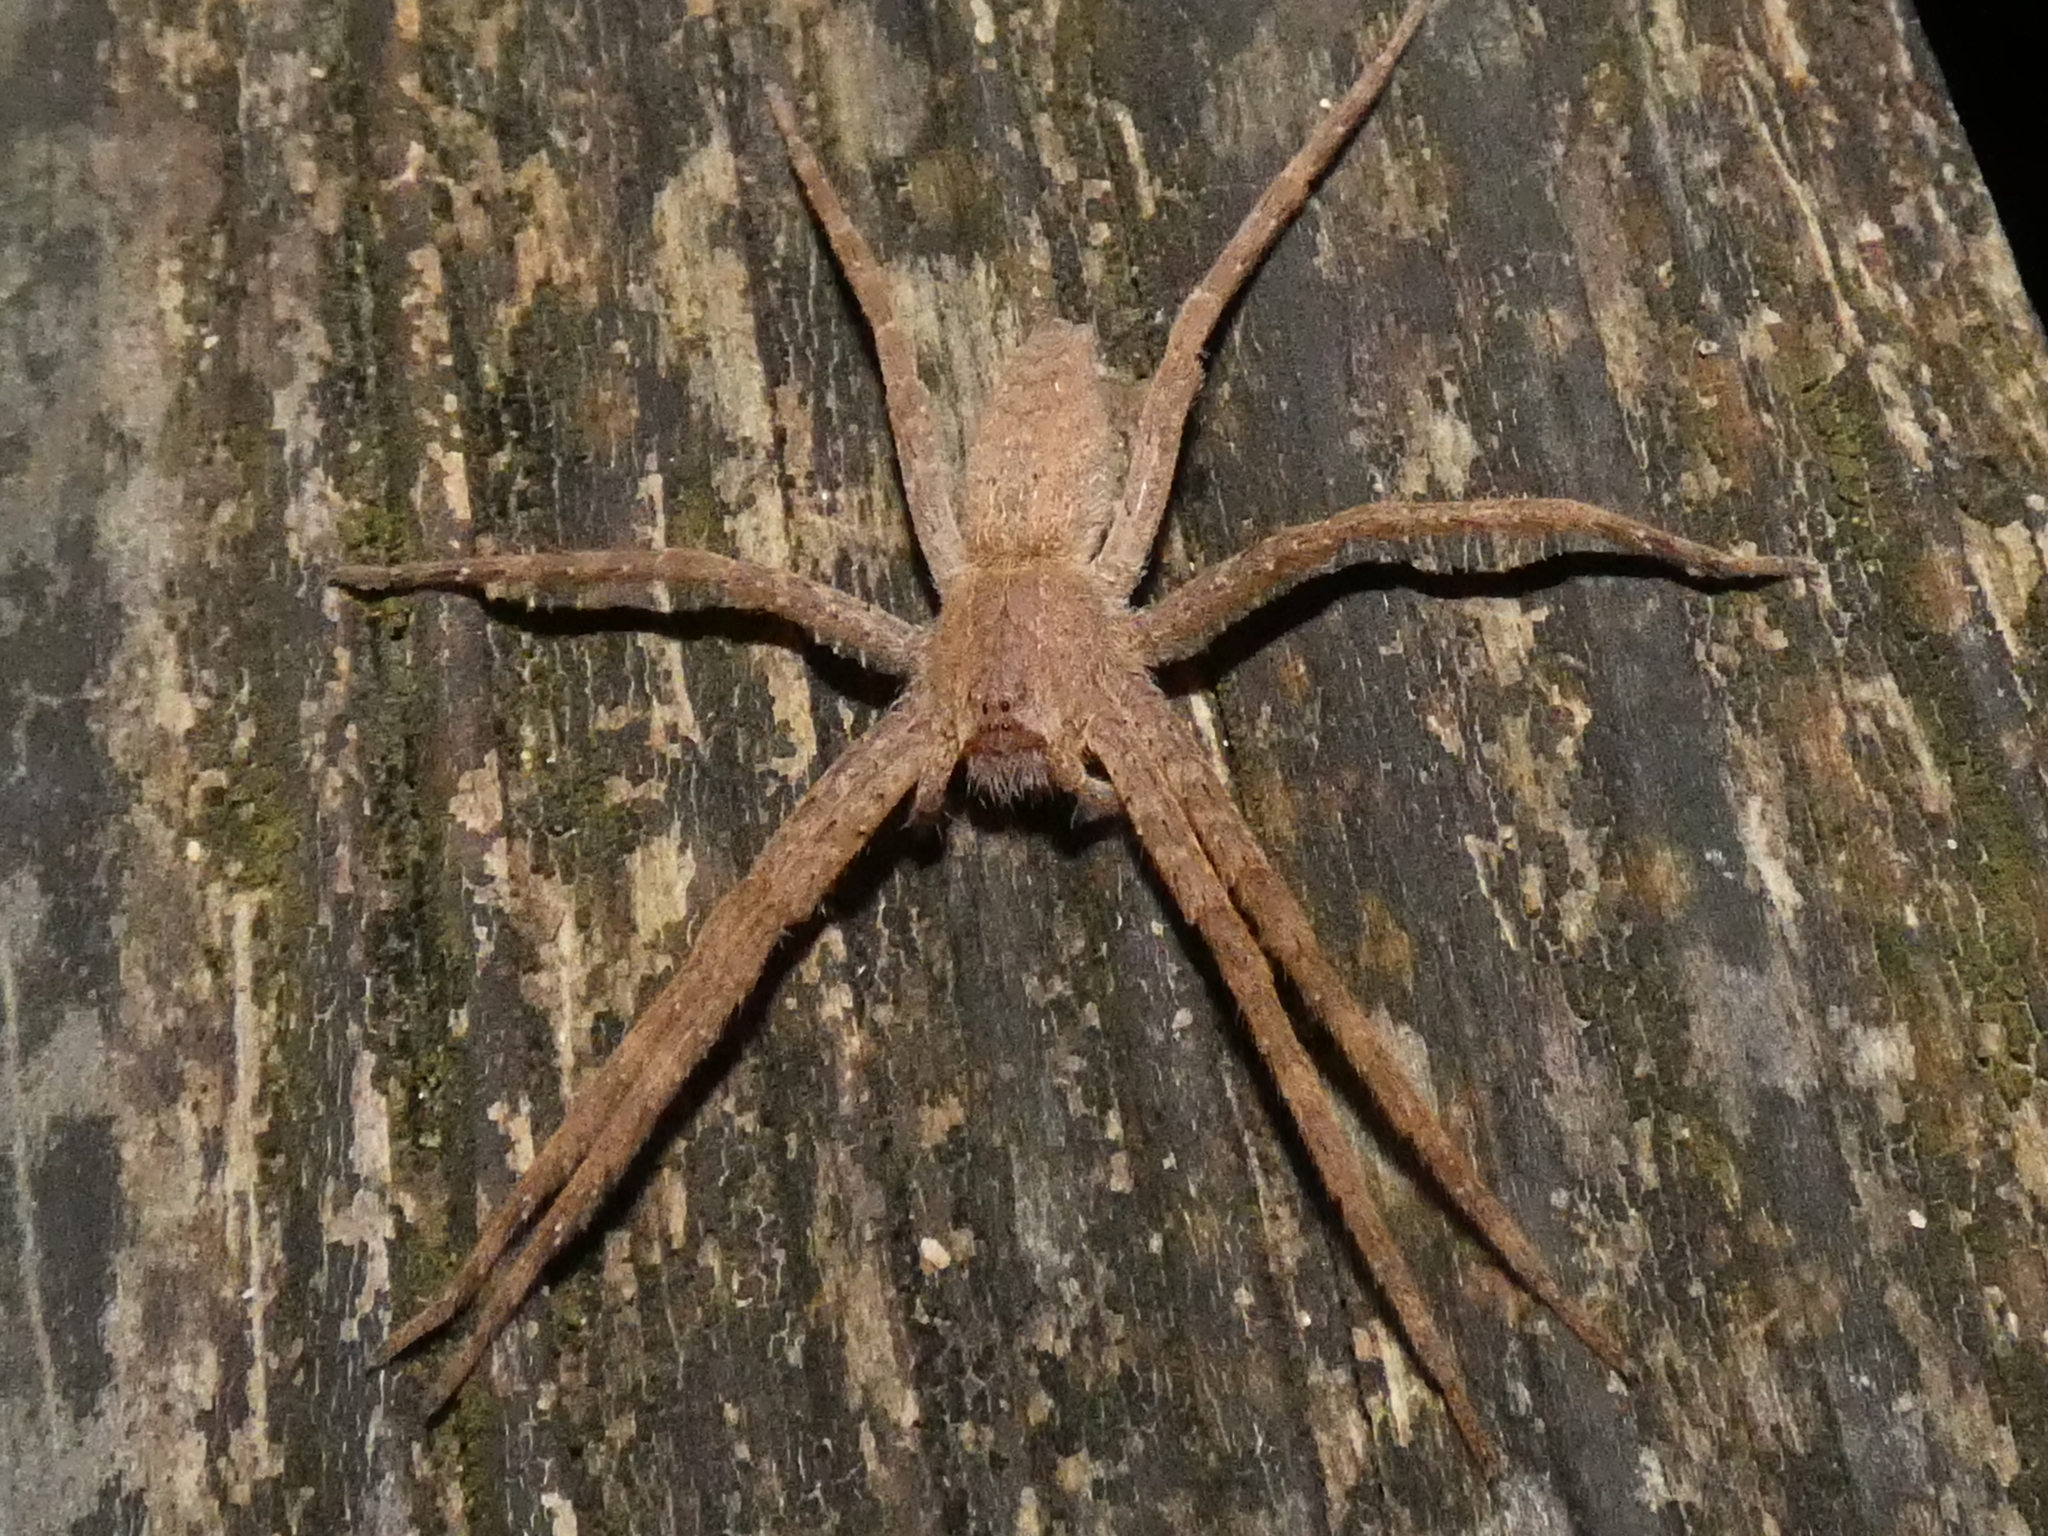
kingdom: Animalia
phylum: Arthropoda
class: Arachnida
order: Araneae
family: Pisauridae
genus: Pisaurina
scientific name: Pisaurina mira
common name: American nursery web spider
